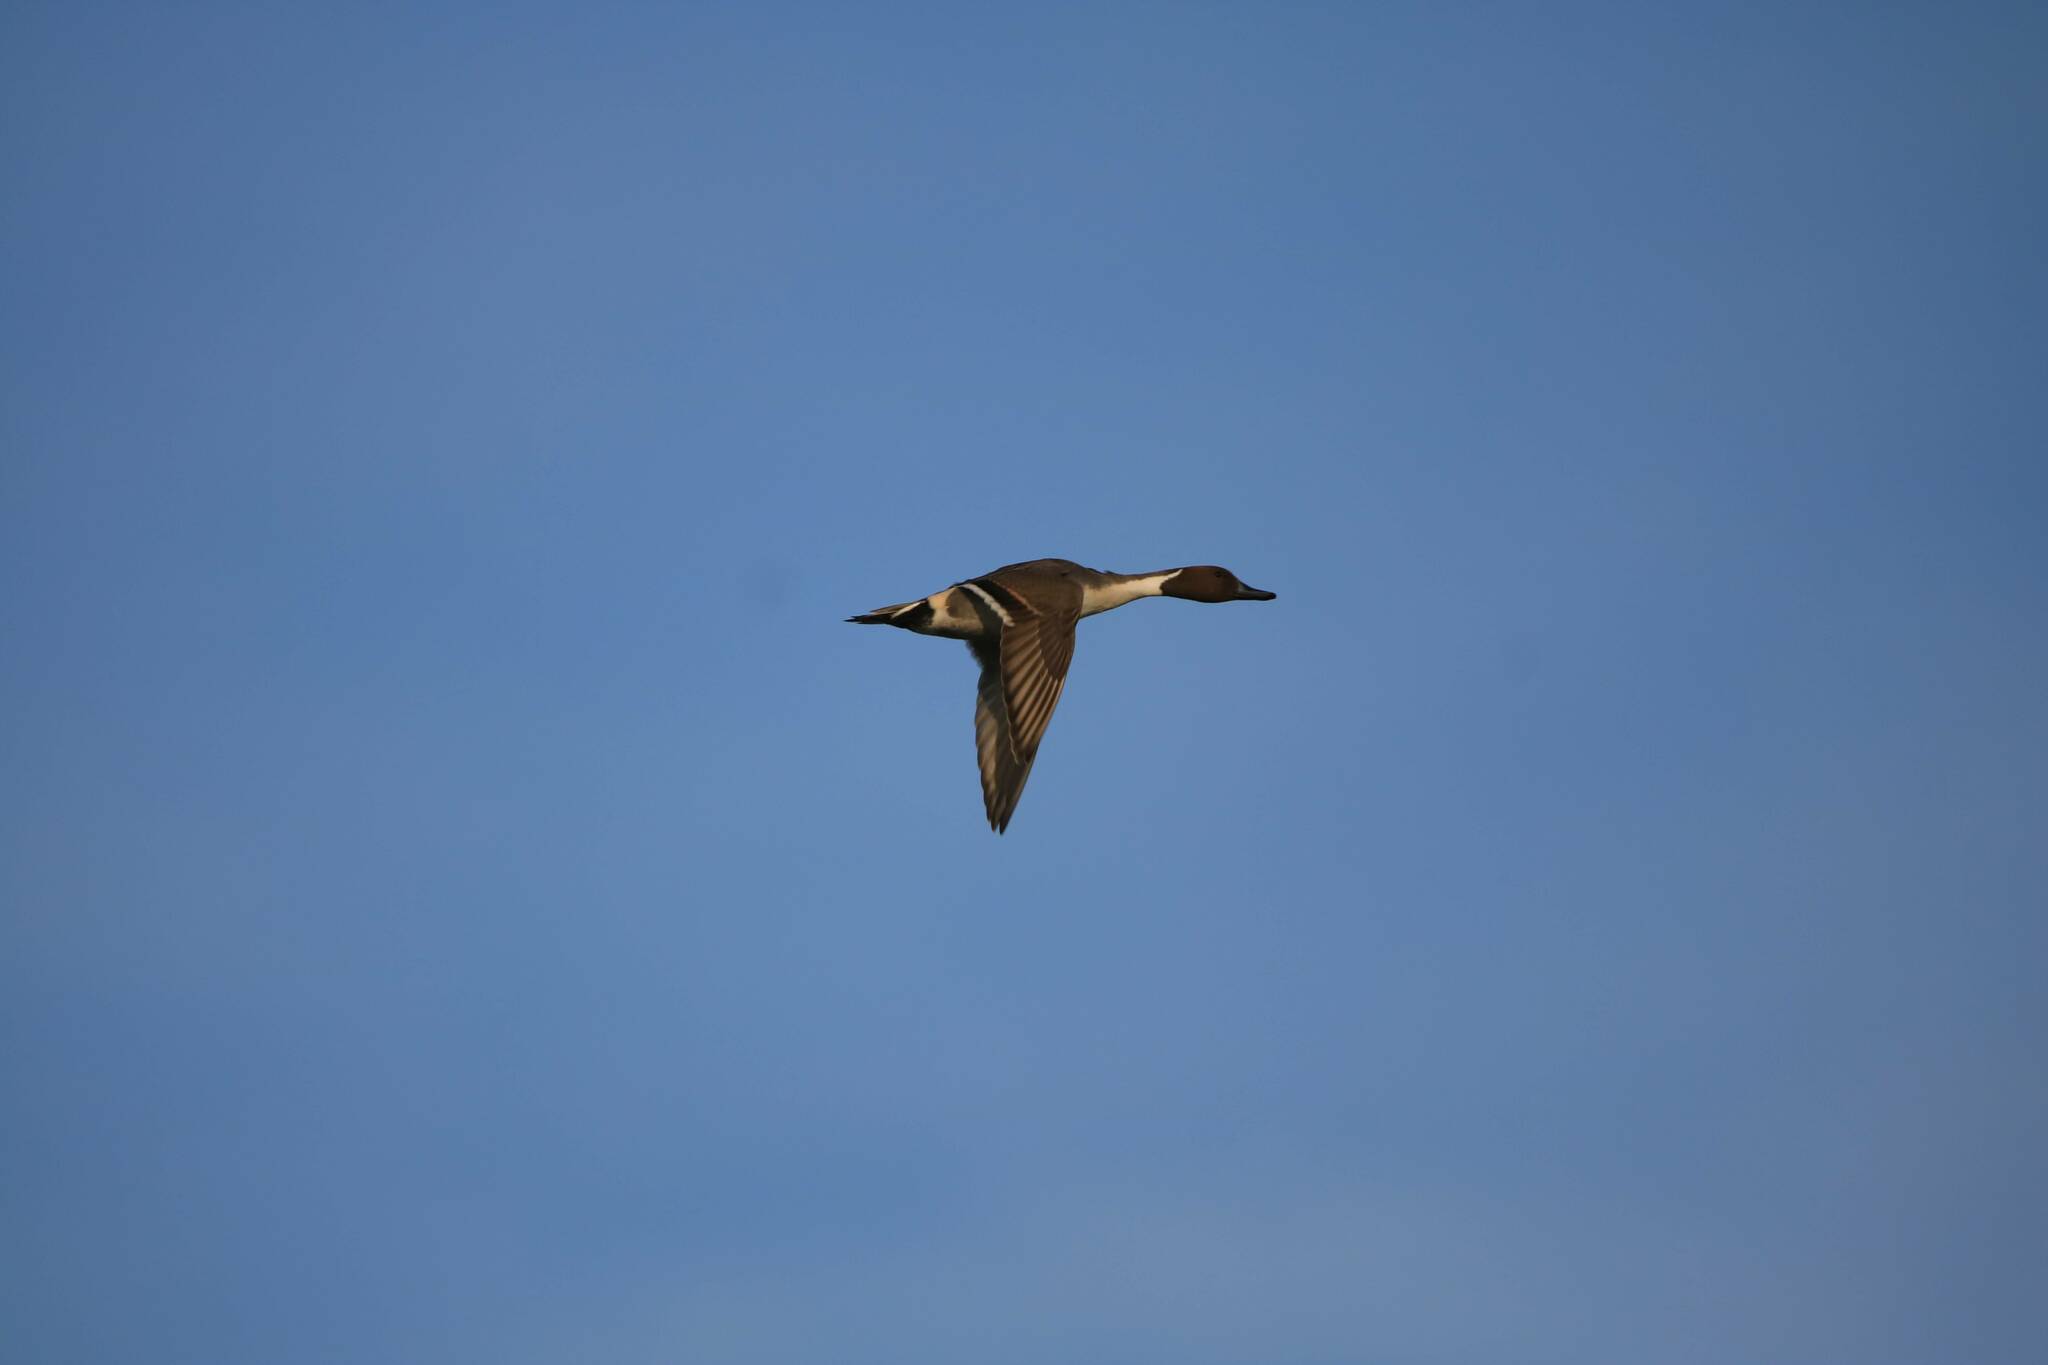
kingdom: Animalia
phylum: Chordata
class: Aves
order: Anseriformes
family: Anatidae
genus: Anas
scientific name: Anas acuta
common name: Northern pintail
